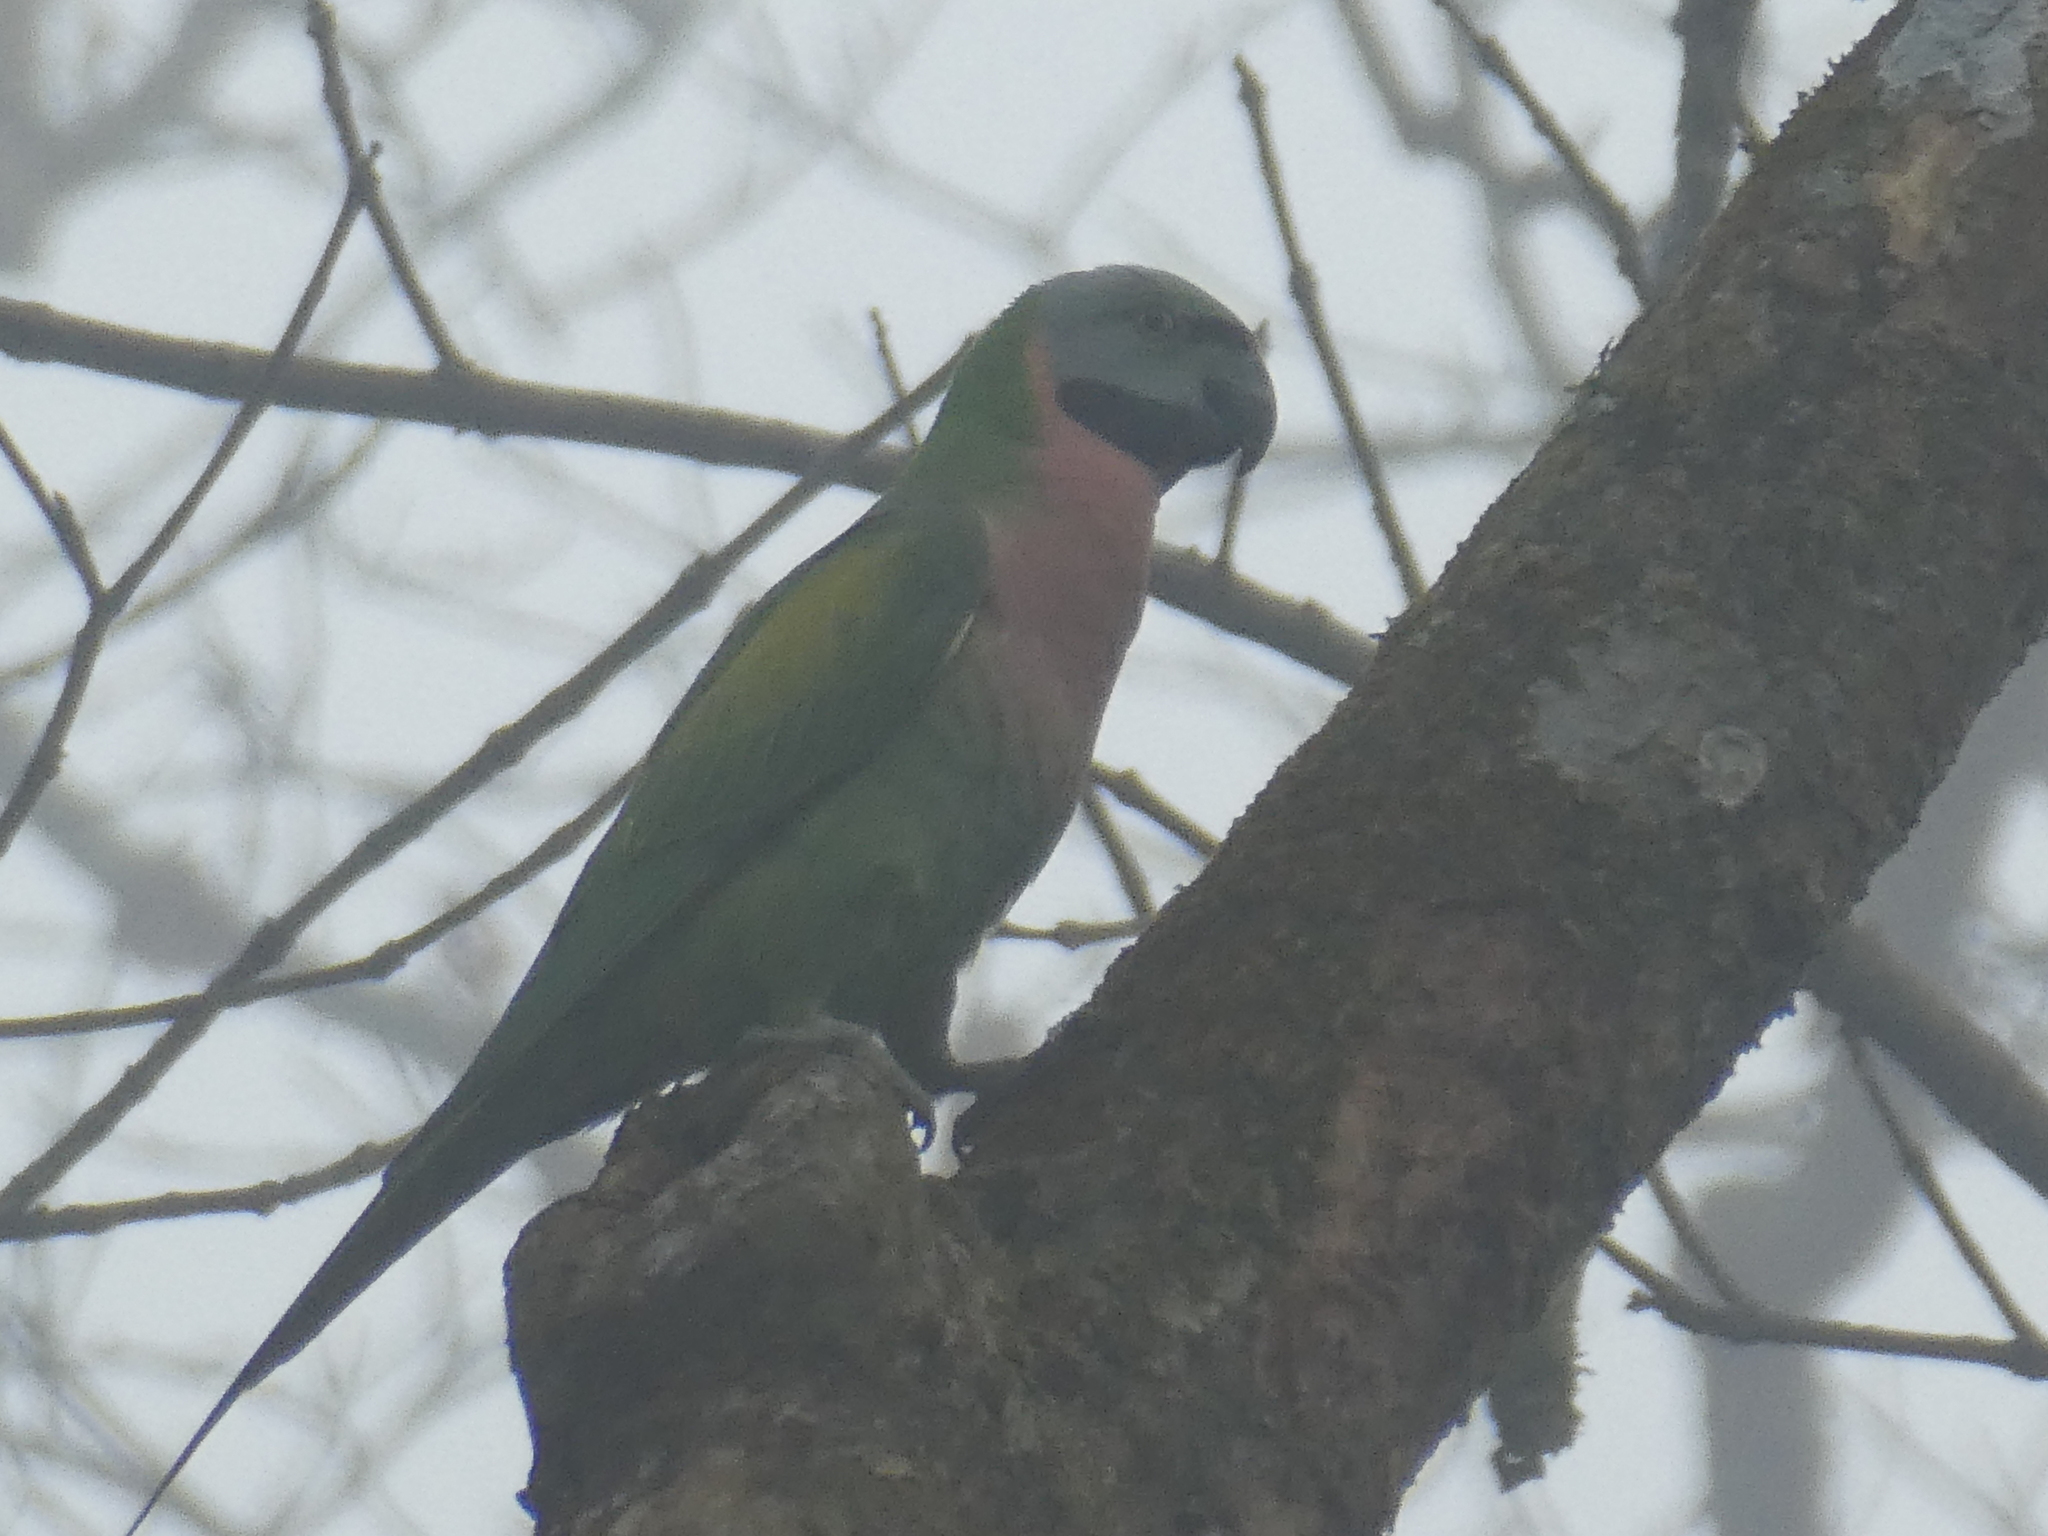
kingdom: Animalia
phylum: Chordata
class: Aves
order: Psittaciformes
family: Psittacidae
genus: Psittacula
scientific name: Psittacula alexandri
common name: Red-breasted parakeet
